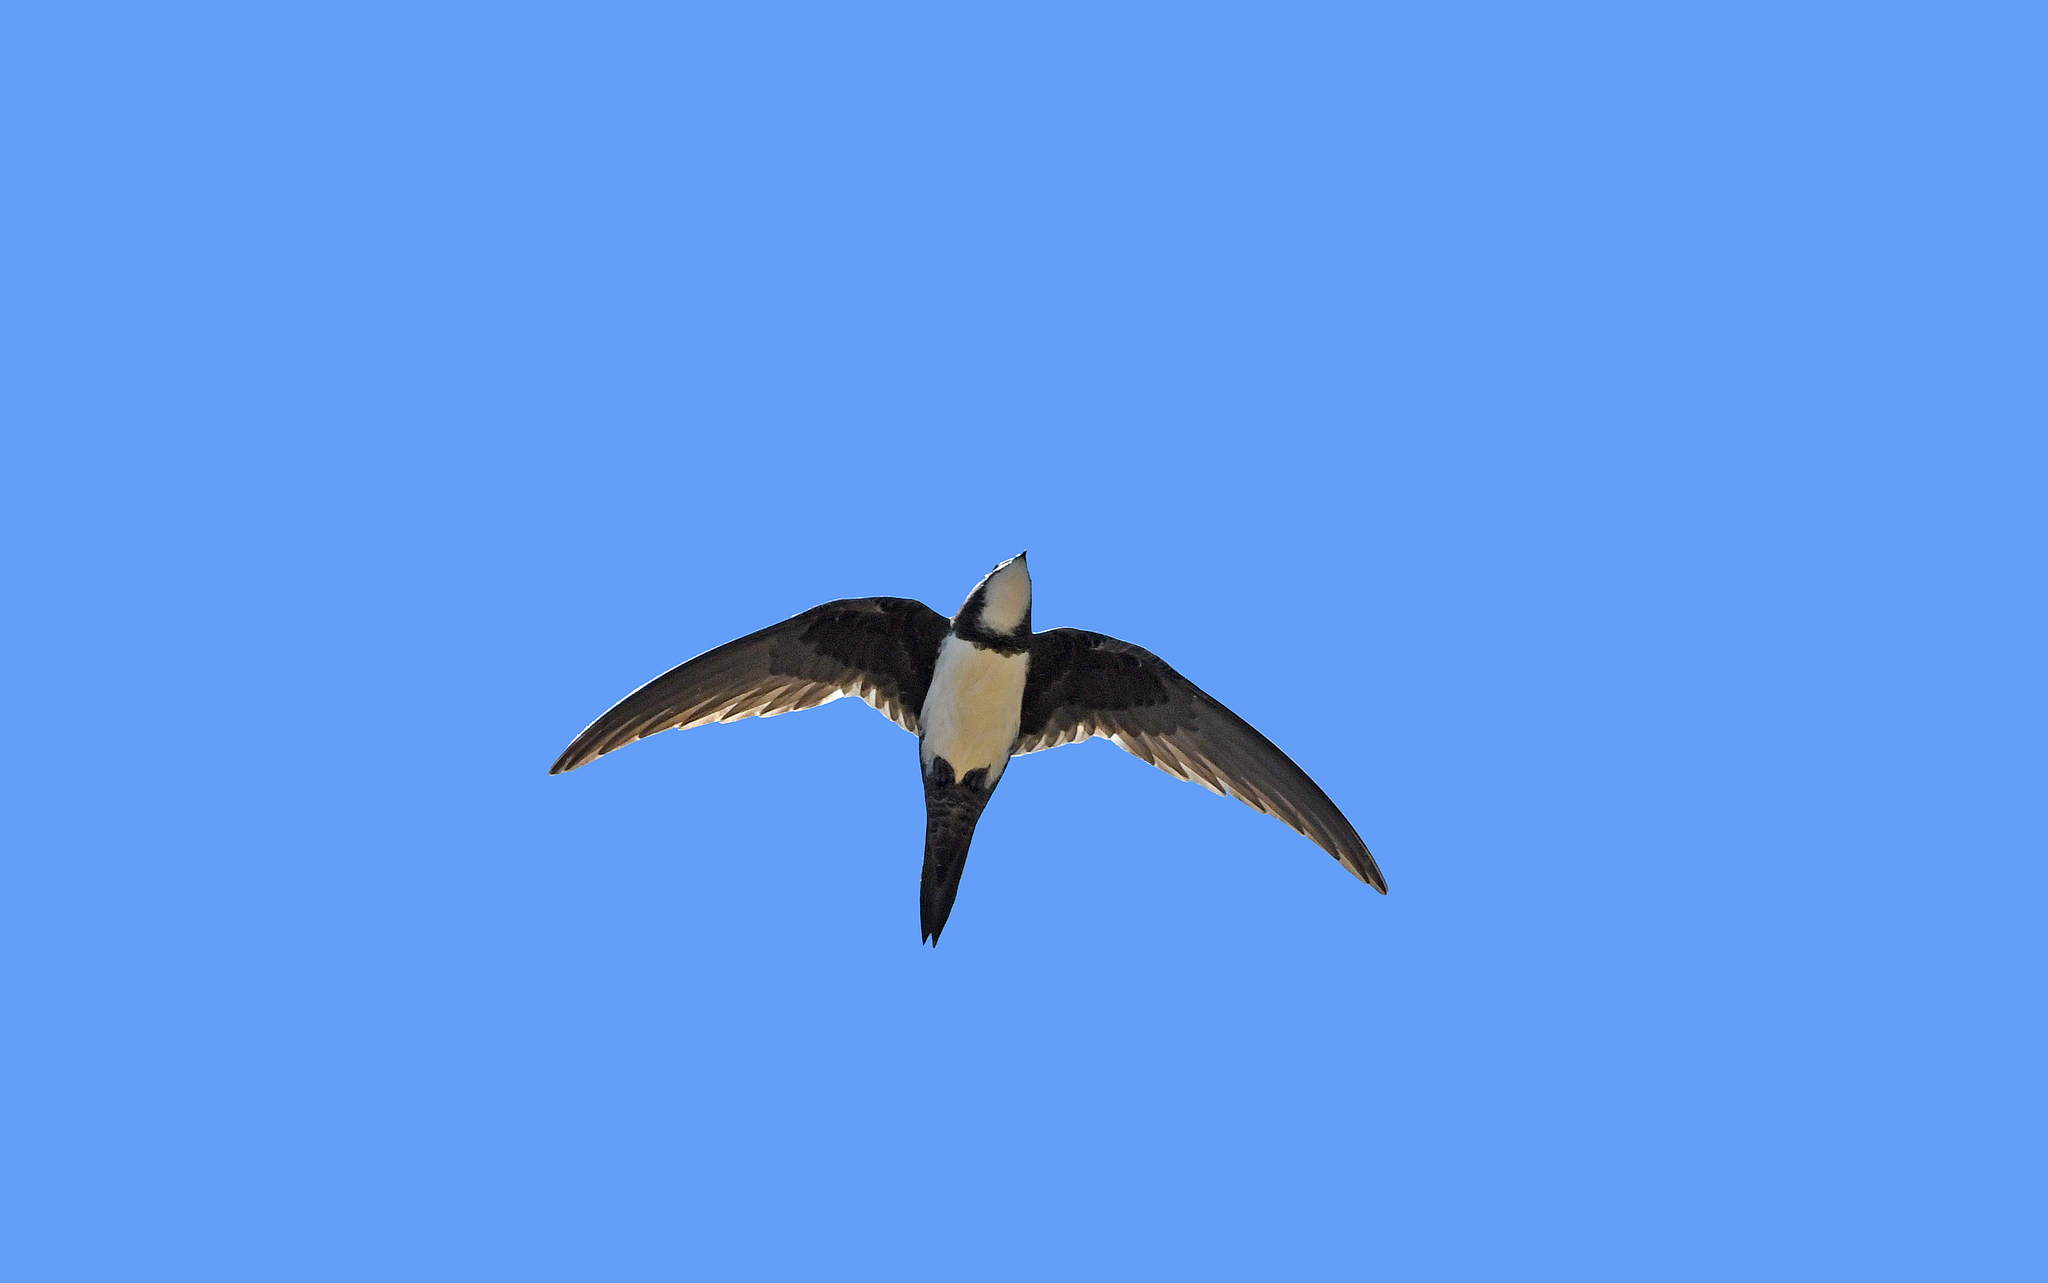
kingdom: Animalia
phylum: Chordata
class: Aves
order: Apodiformes
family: Apodidae
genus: Tachymarptis
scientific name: Tachymarptis melba
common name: Alpine swift
